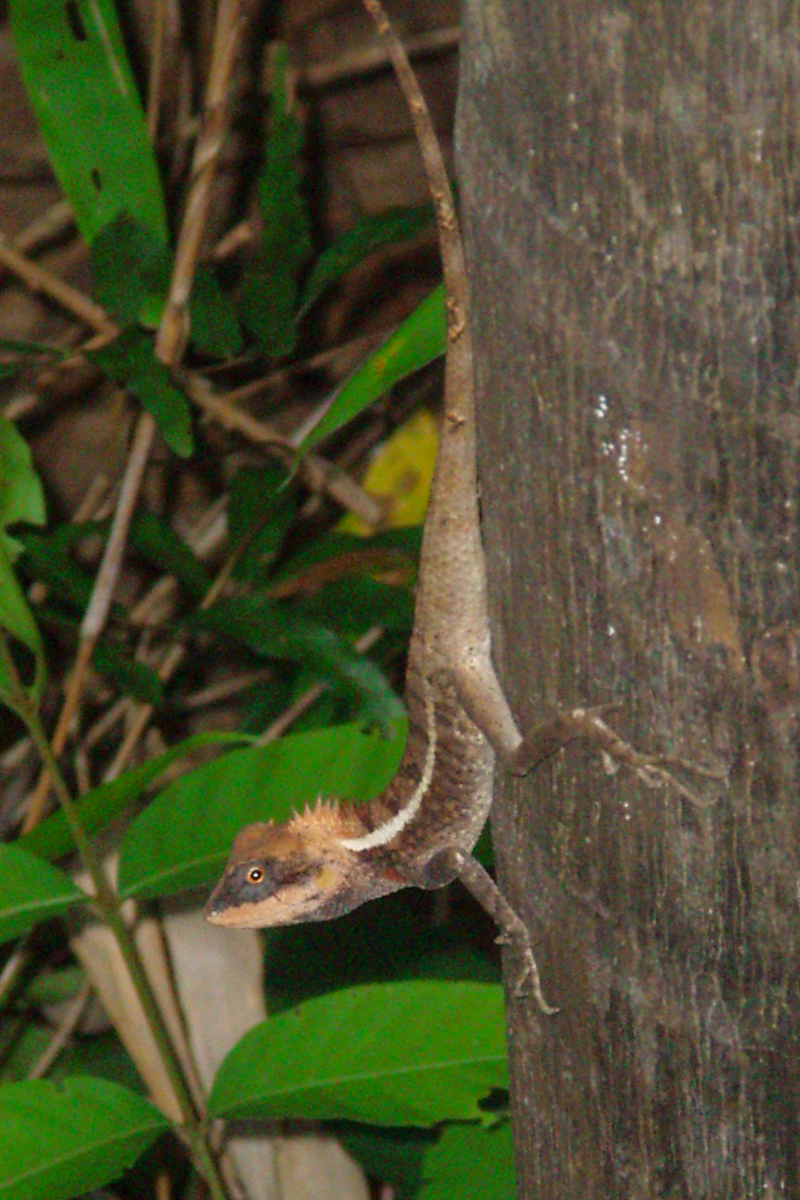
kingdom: Animalia
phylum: Chordata
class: Squamata
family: Agamidae
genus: Calotes
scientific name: Calotes emma
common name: Thailand bloodsucker
